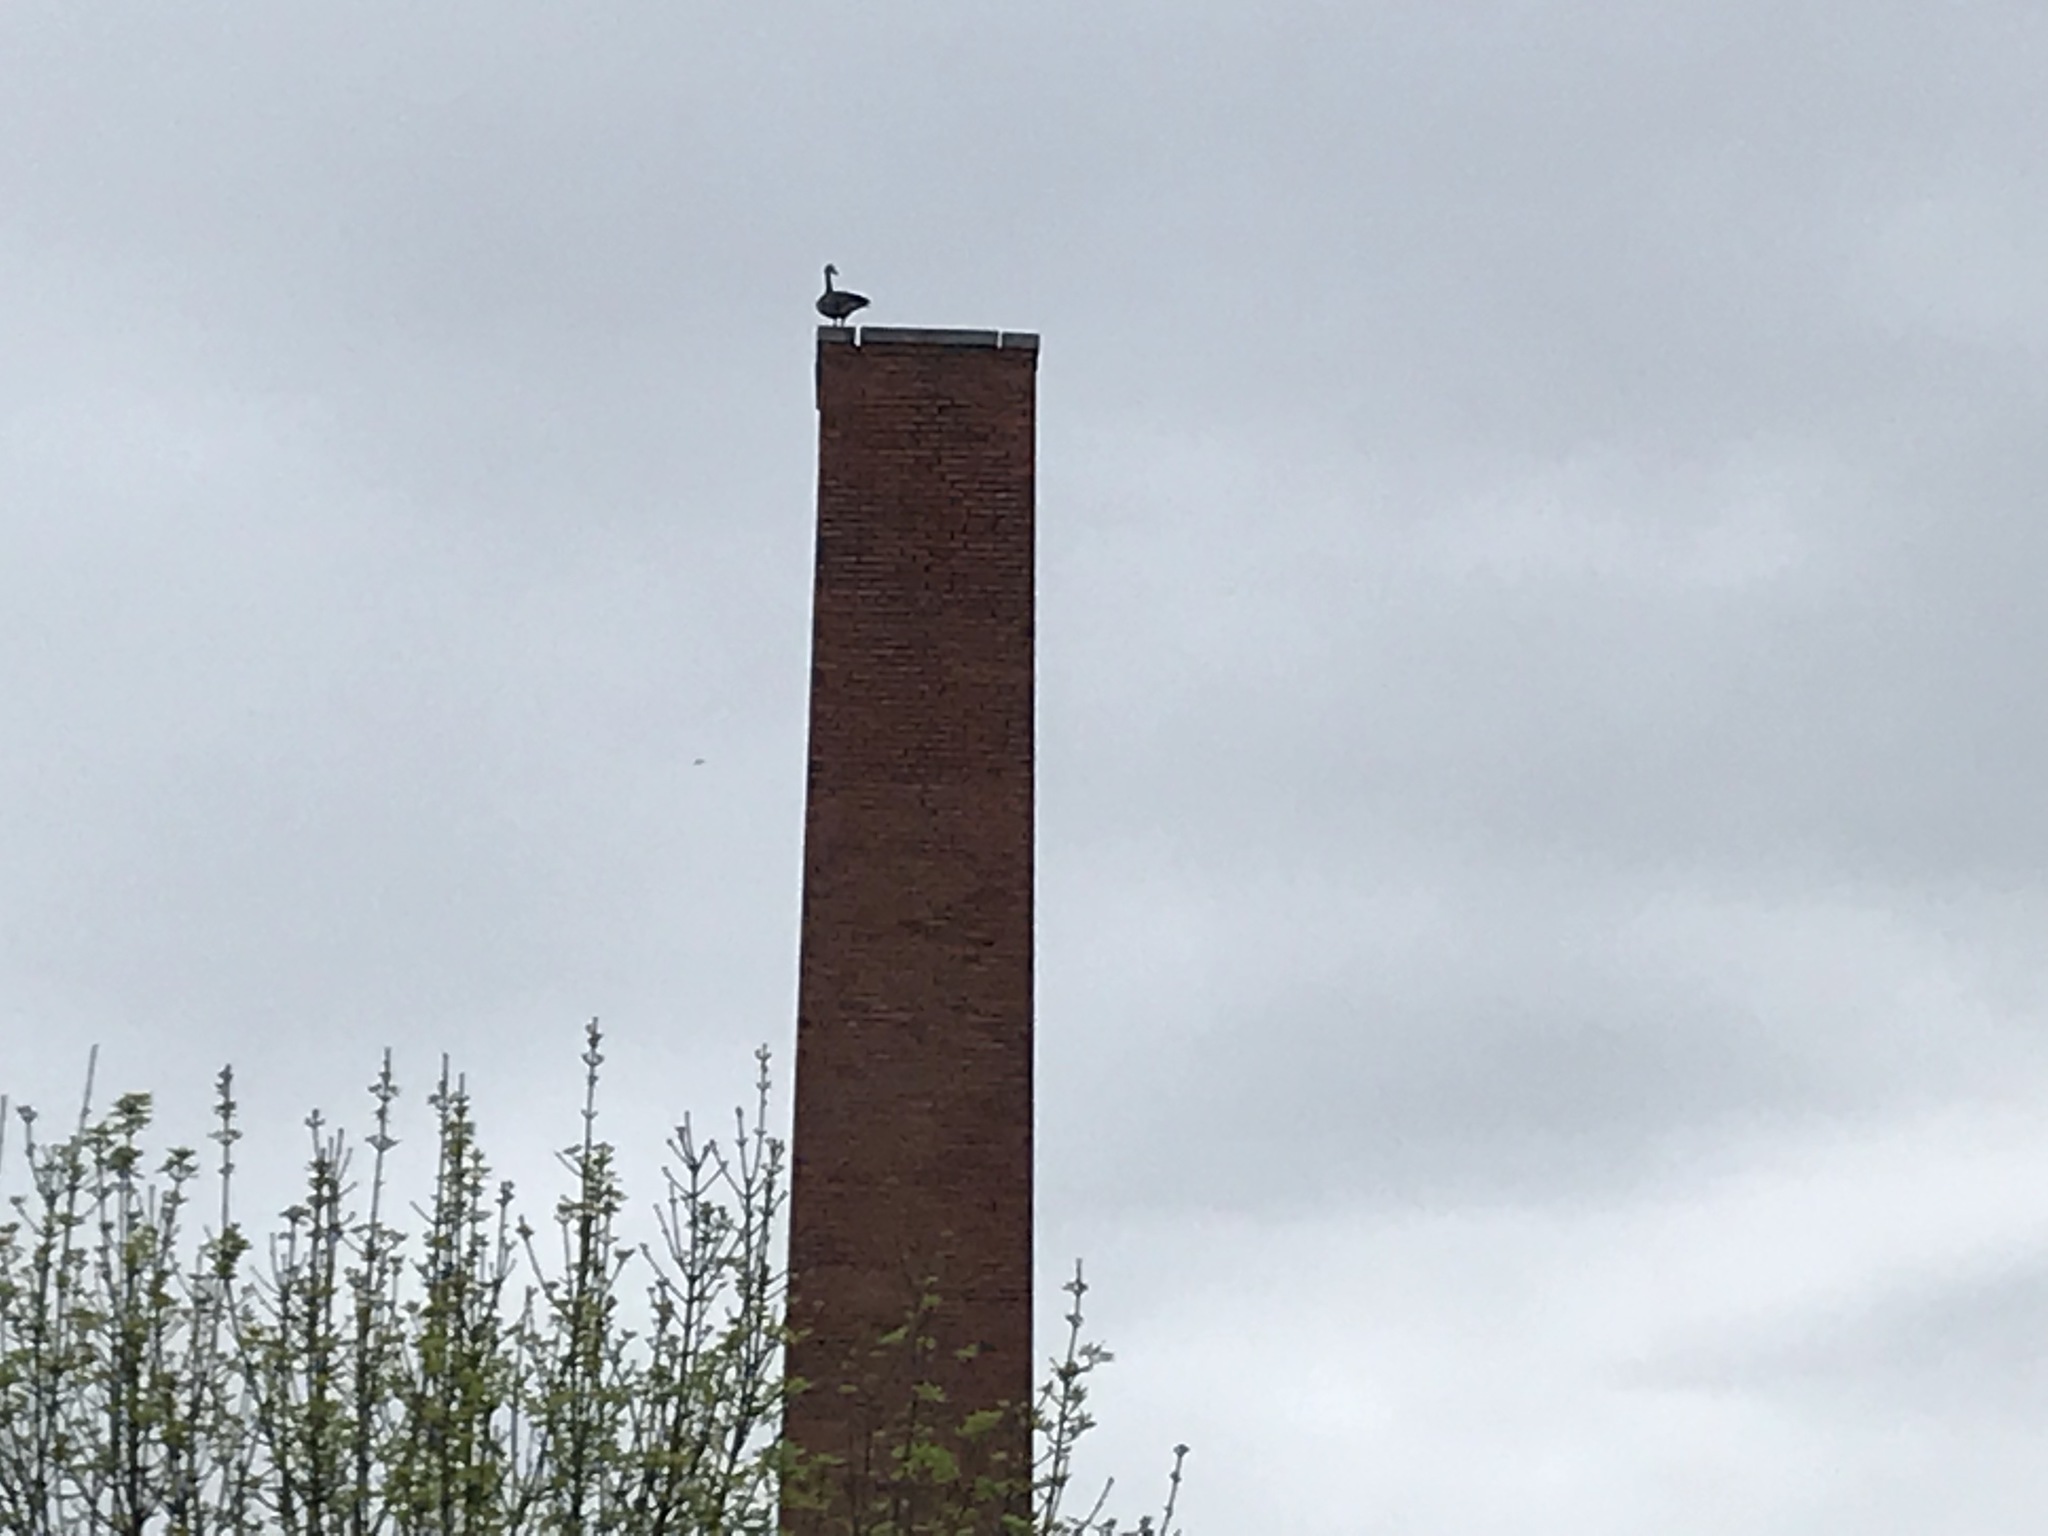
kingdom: Animalia
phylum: Chordata
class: Aves
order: Anseriformes
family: Anatidae
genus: Branta
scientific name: Branta canadensis
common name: Canada goose
